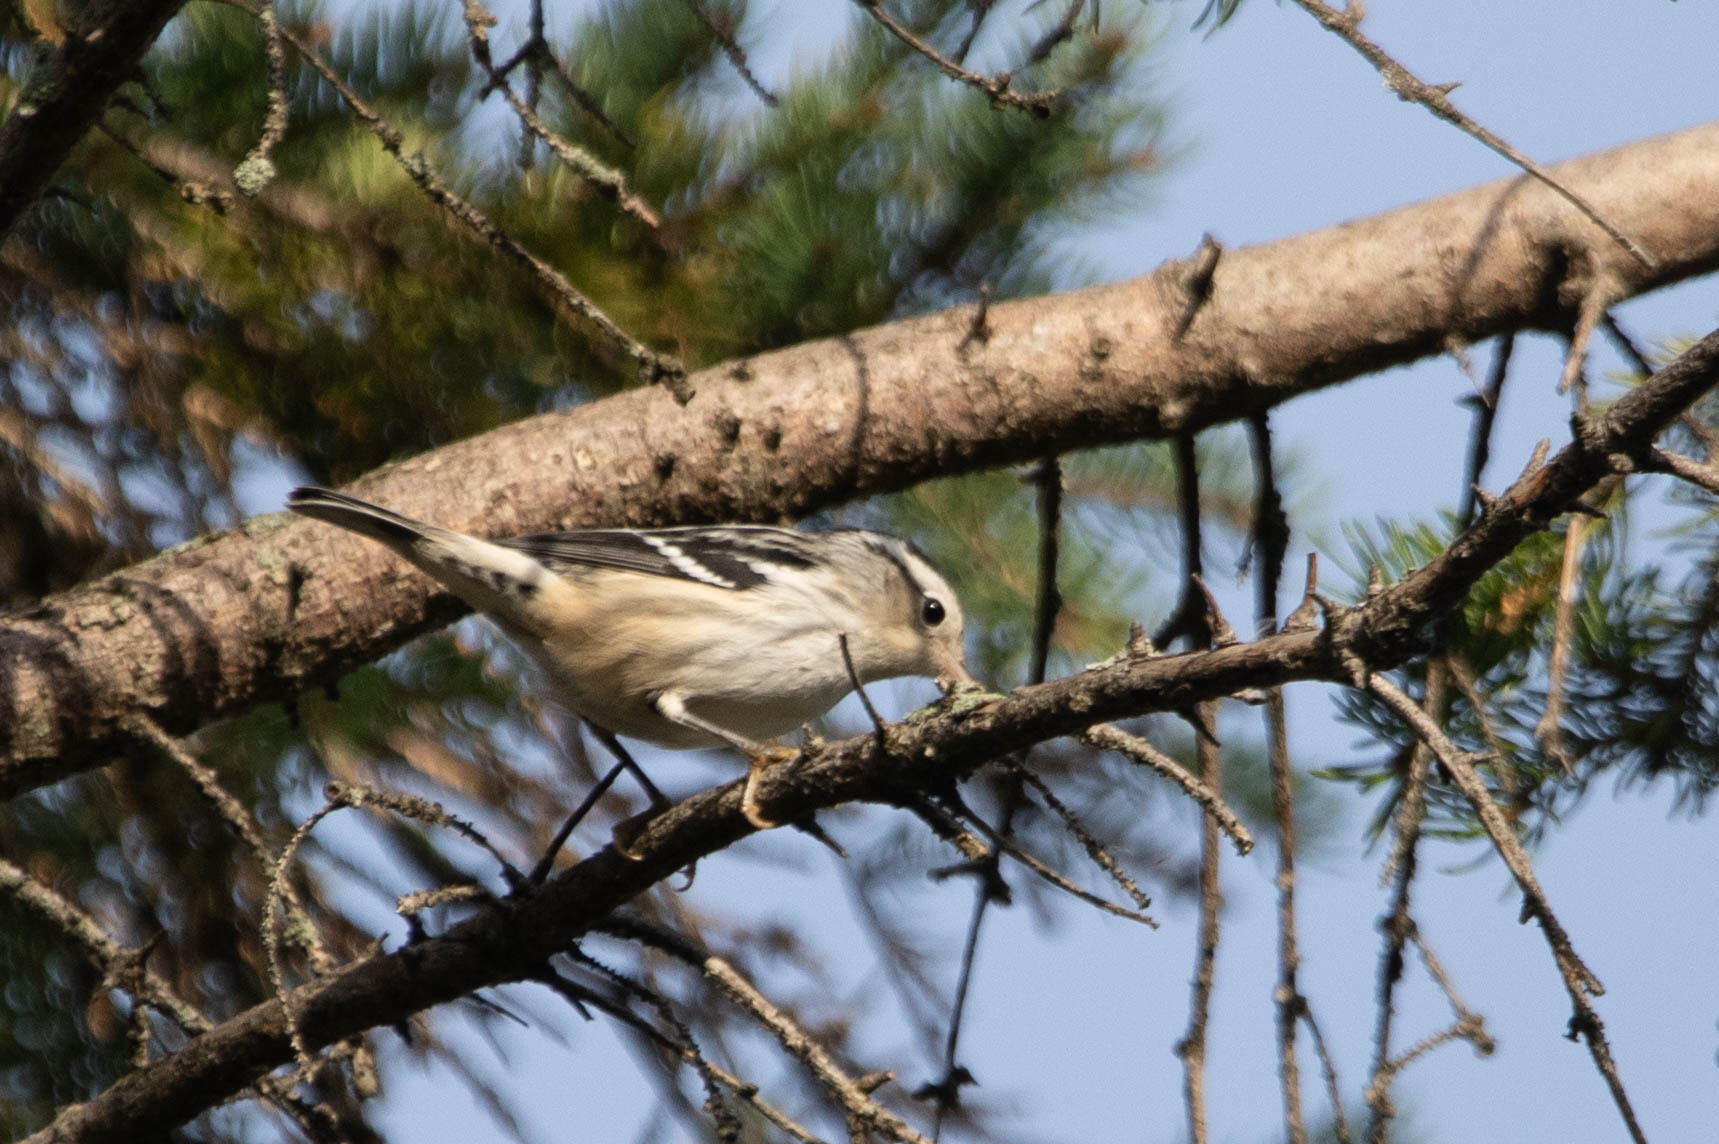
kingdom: Animalia
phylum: Chordata
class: Aves
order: Passeriformes
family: Parulidae
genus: Mniotilta
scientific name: Mniotilta varia
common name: Black-and-white warbler
